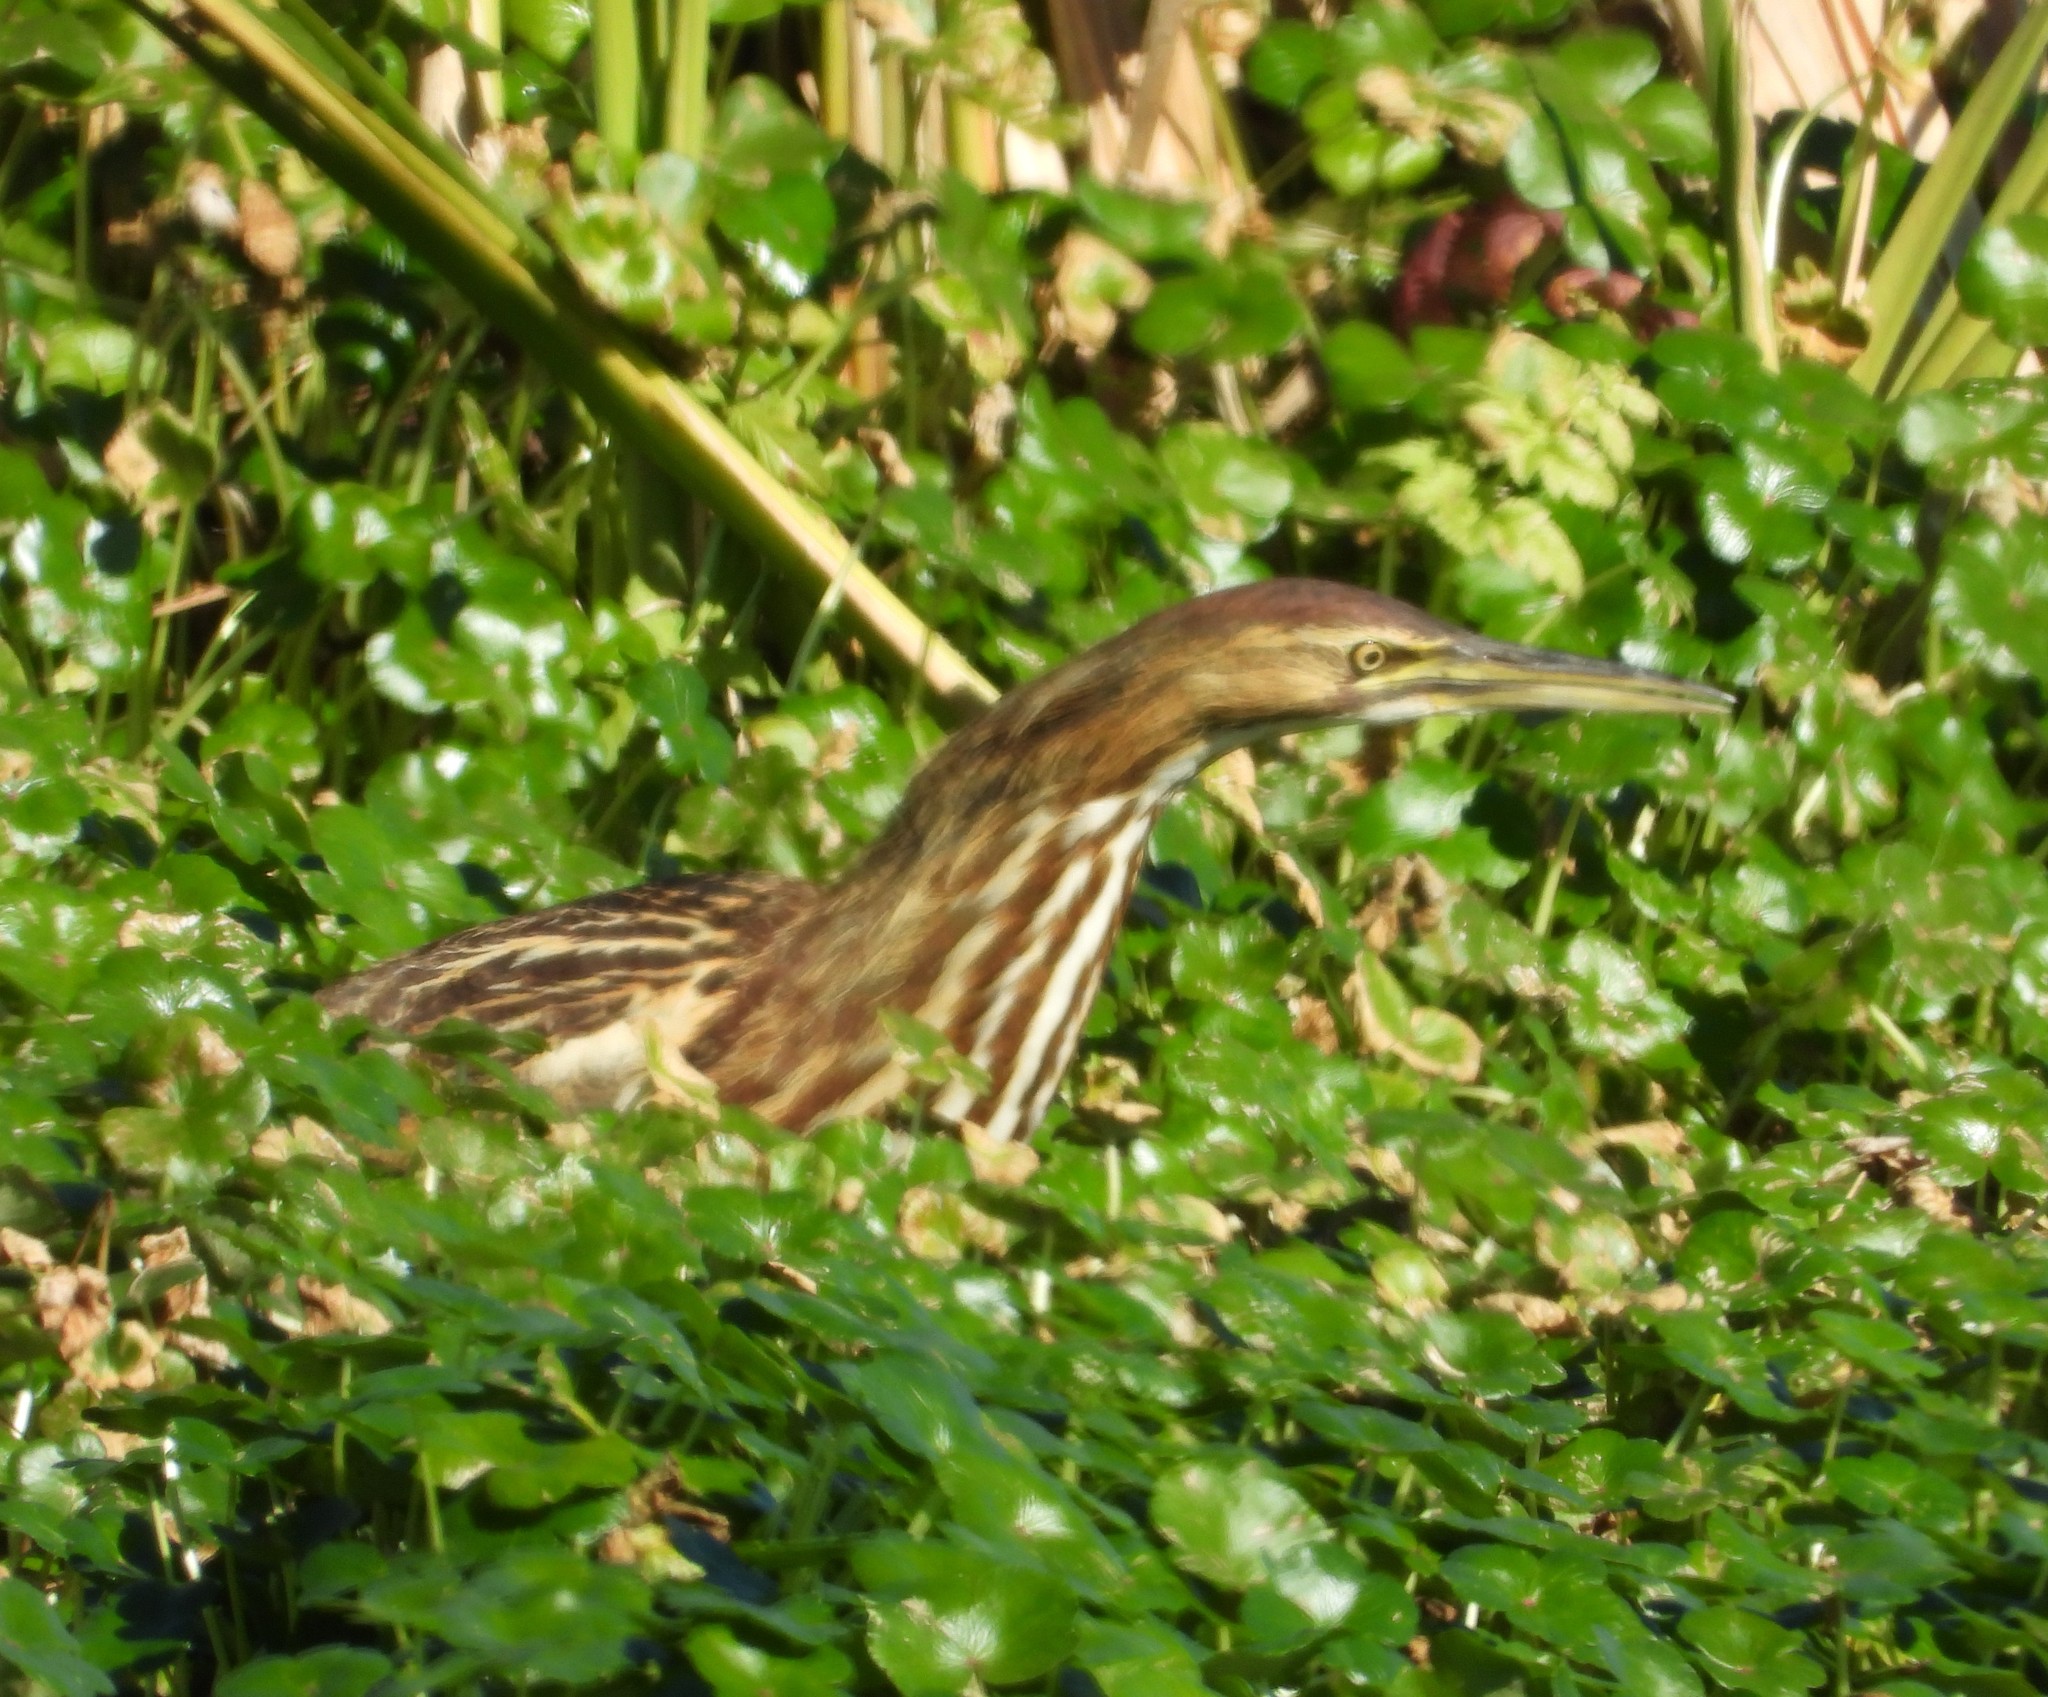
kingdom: Animalia
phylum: Chordata
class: Aves
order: Pelecaniformes
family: Ardeidae
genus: Botaurus
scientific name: Botaurus lentiginosus
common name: American bittern
